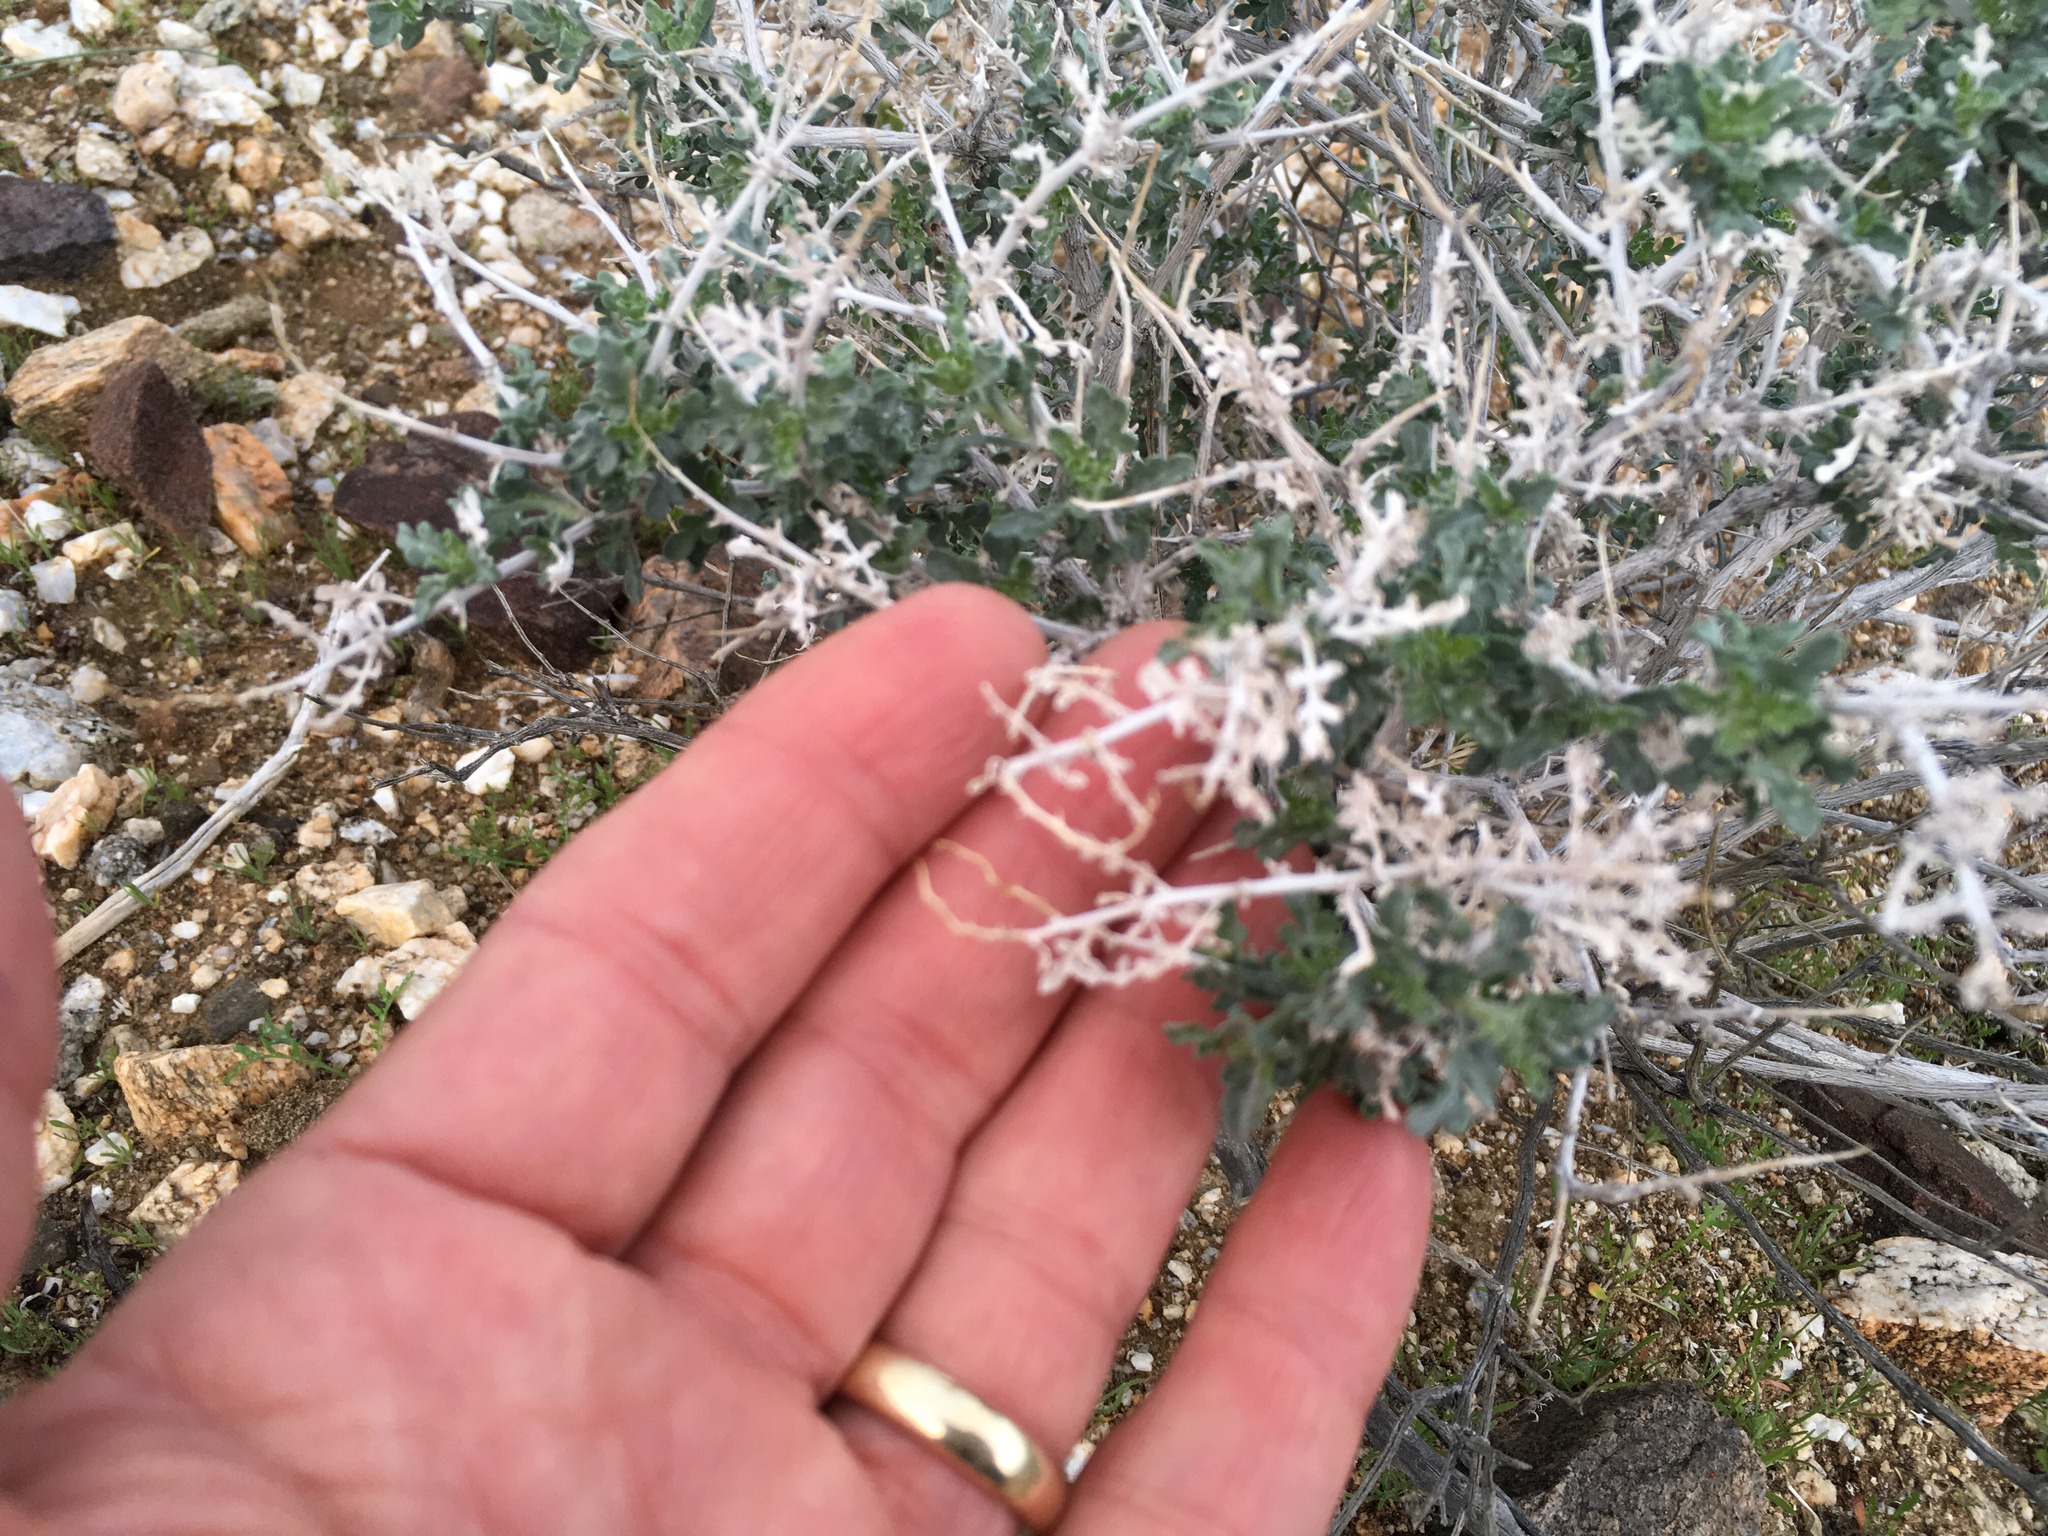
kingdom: Plantae
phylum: Tracheophyta
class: Magnoliopsida
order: Asterales
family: Asteraceae
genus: Ambrosia
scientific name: Ambrosia dumosa
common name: Bur-sage
